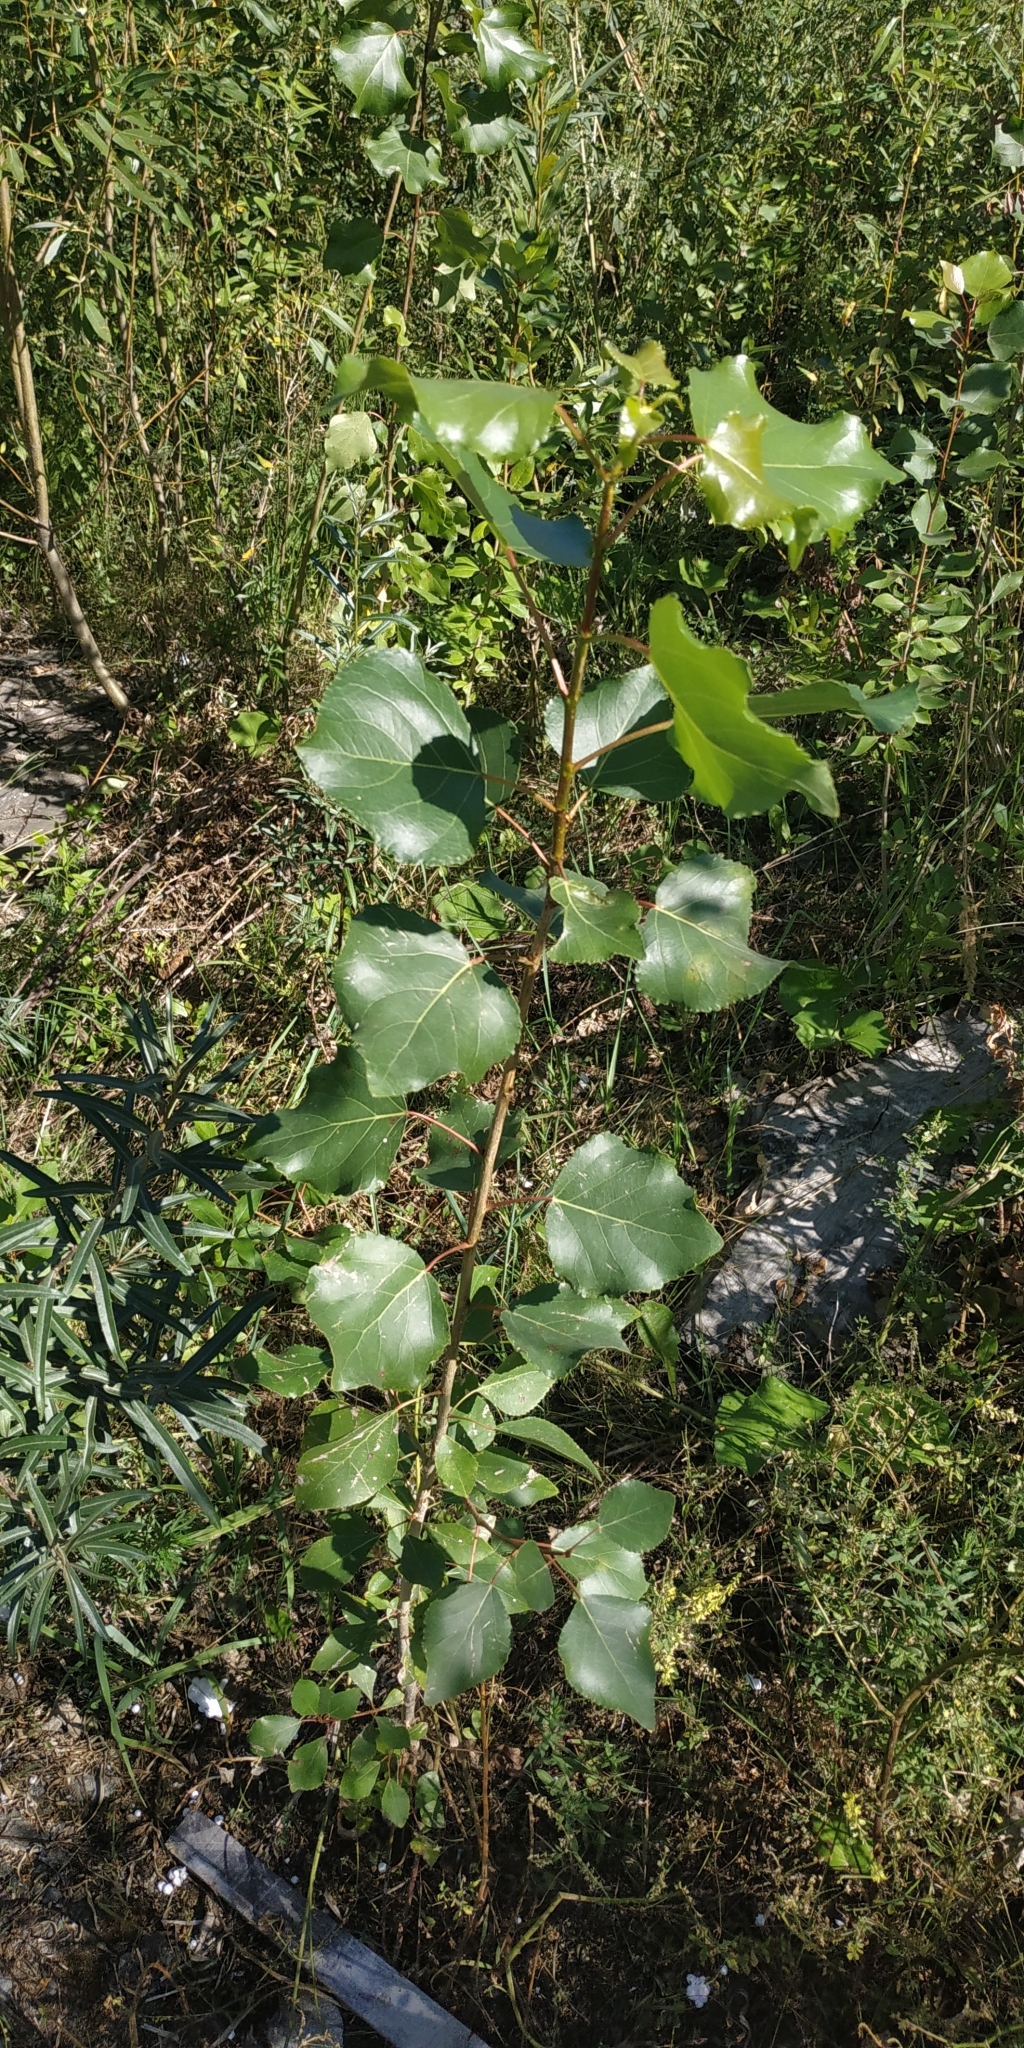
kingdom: Plantae
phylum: Tracheophyta
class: Magnoliopsida
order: Malpighiales
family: Salicaceae
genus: Populus
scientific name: Populus nigra
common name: Black poplar
